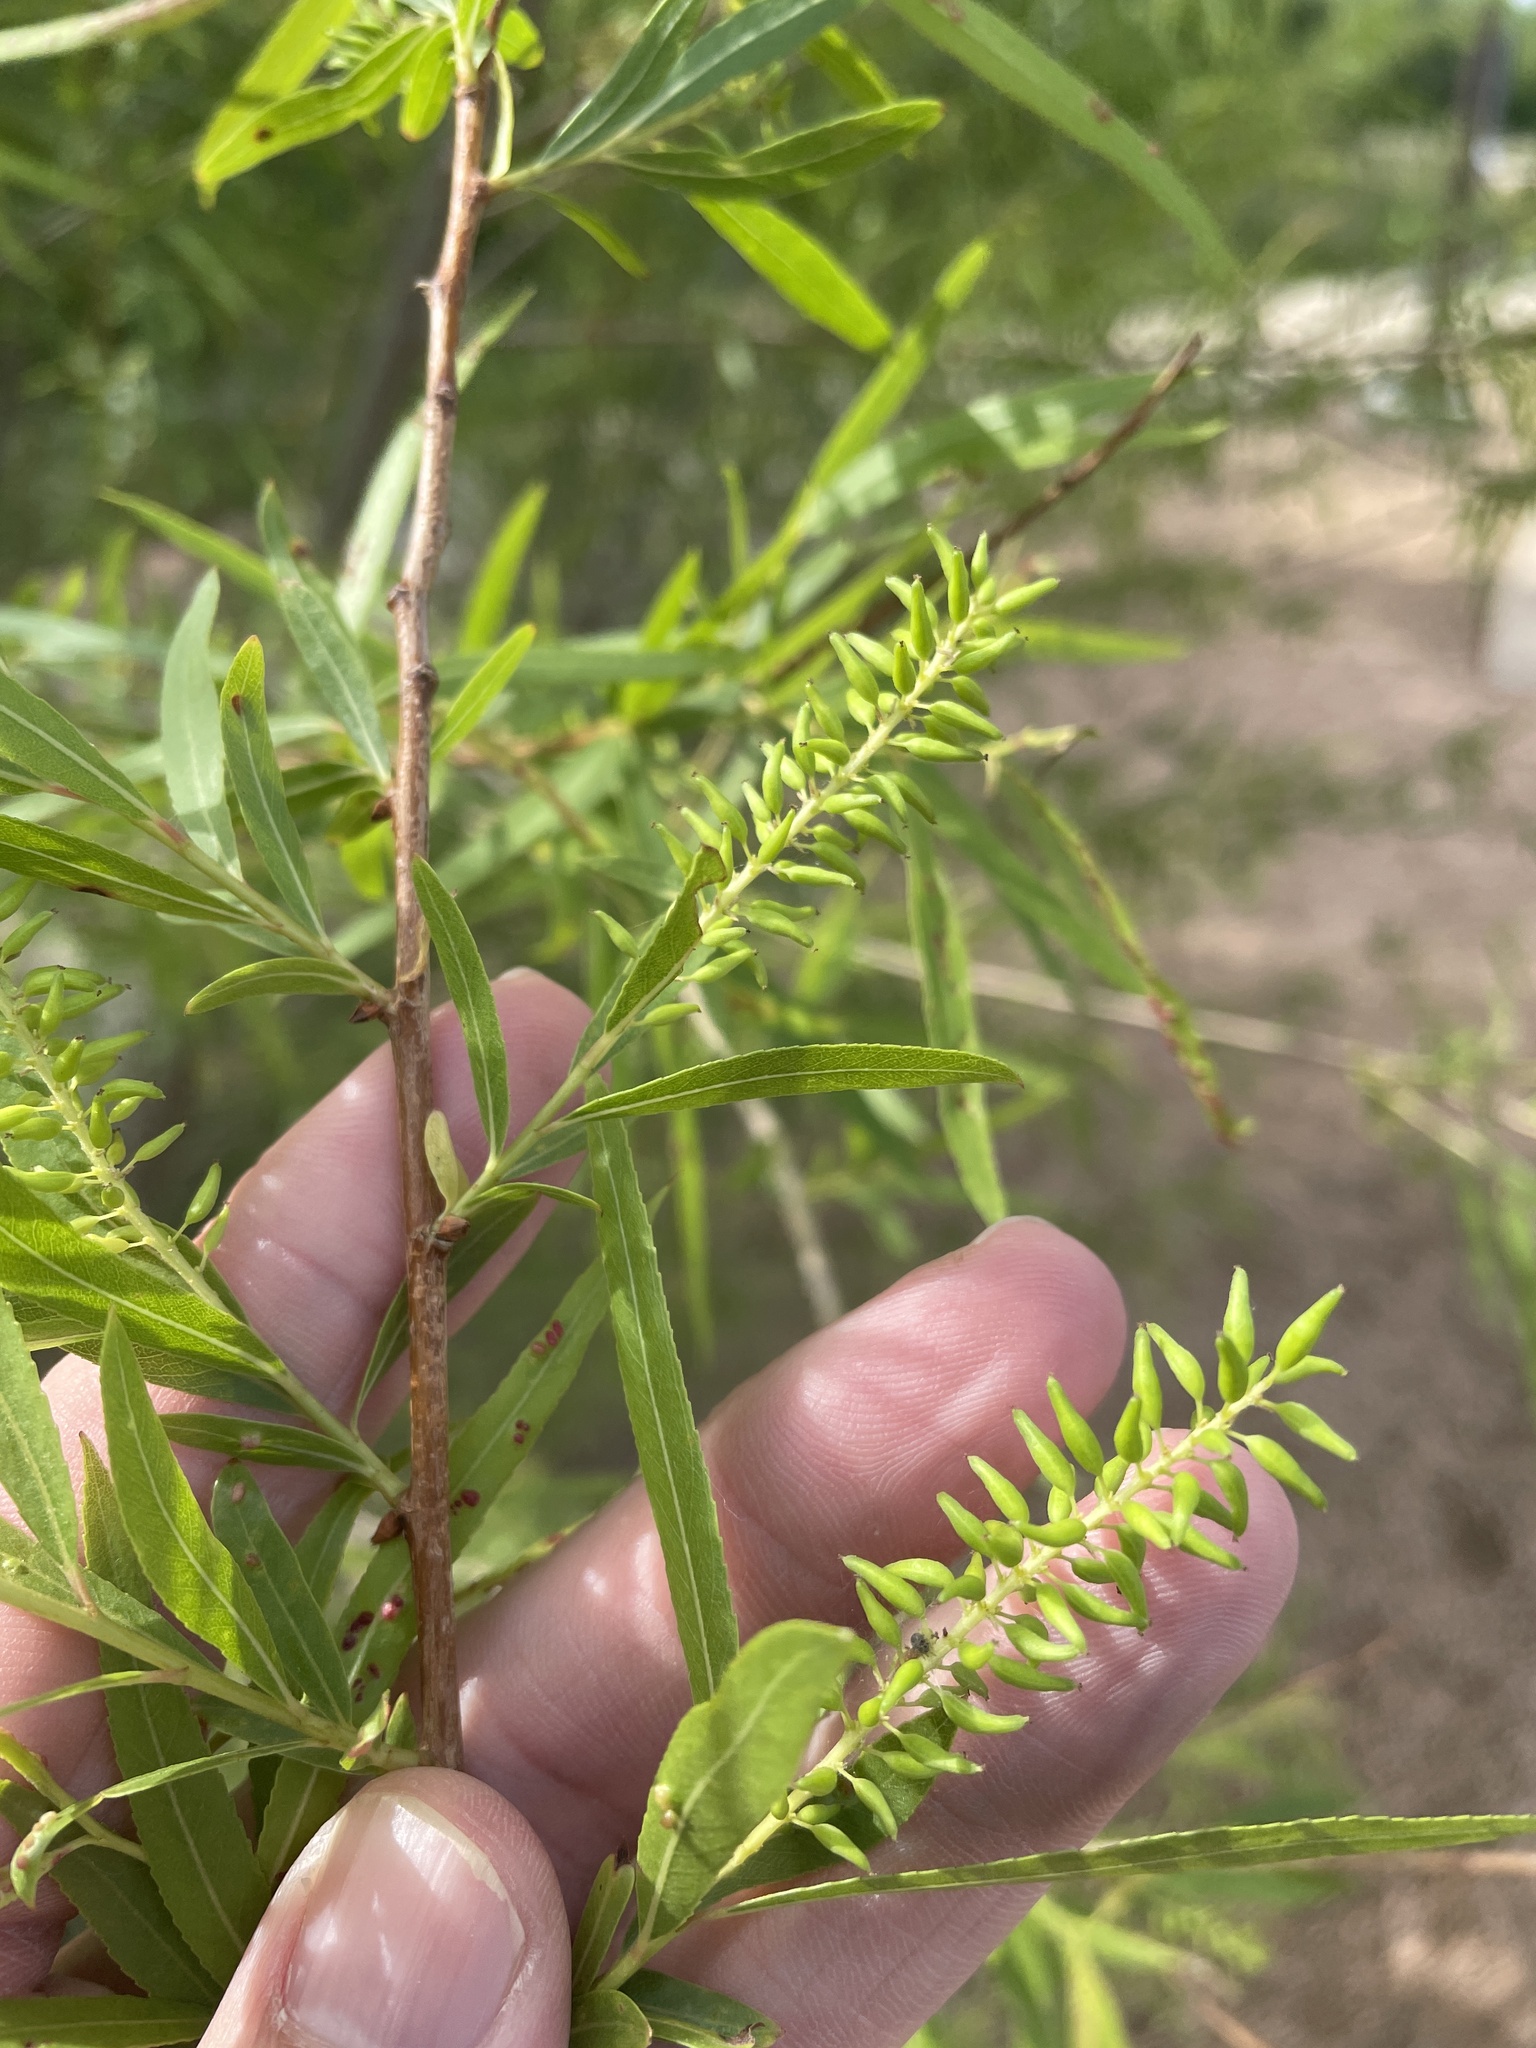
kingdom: Plantae
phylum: Tracheophyta
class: Magnoliopsida
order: Malpighiales
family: Salicaceae
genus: Salix
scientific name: Salix nigra
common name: Black willow
